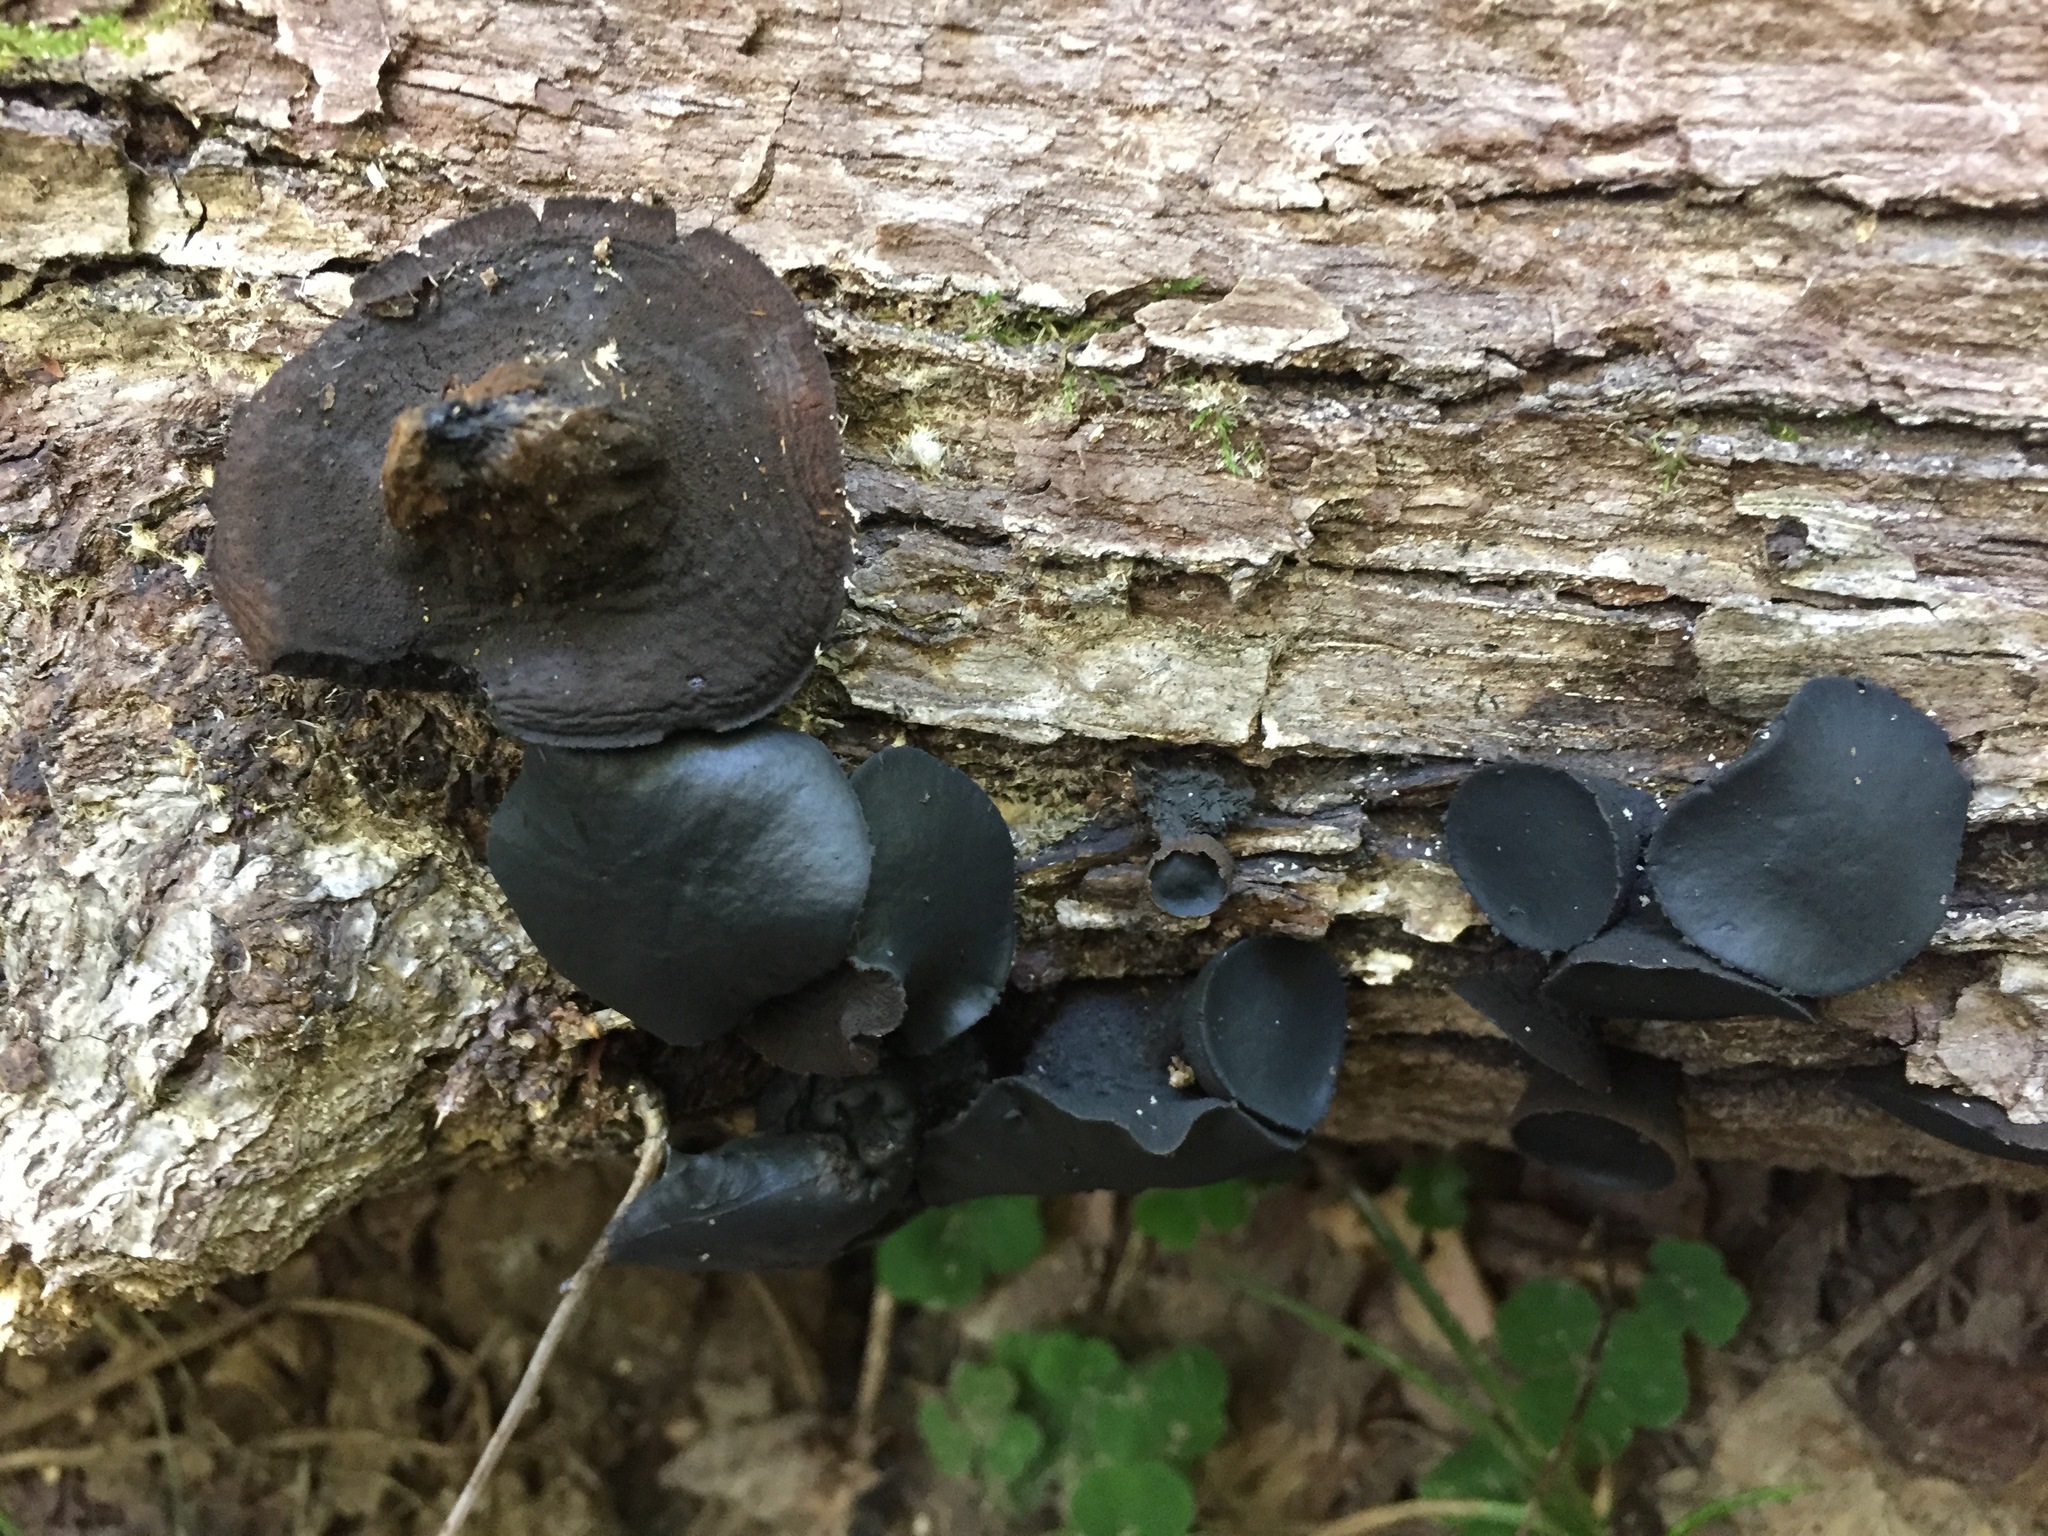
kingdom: Fungi
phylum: Ascomycota
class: Leotiomycetes
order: Phacidiales
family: Phacidiaceae
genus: Bulgaria
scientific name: Bulgaria inquinans
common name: Black bulgar
